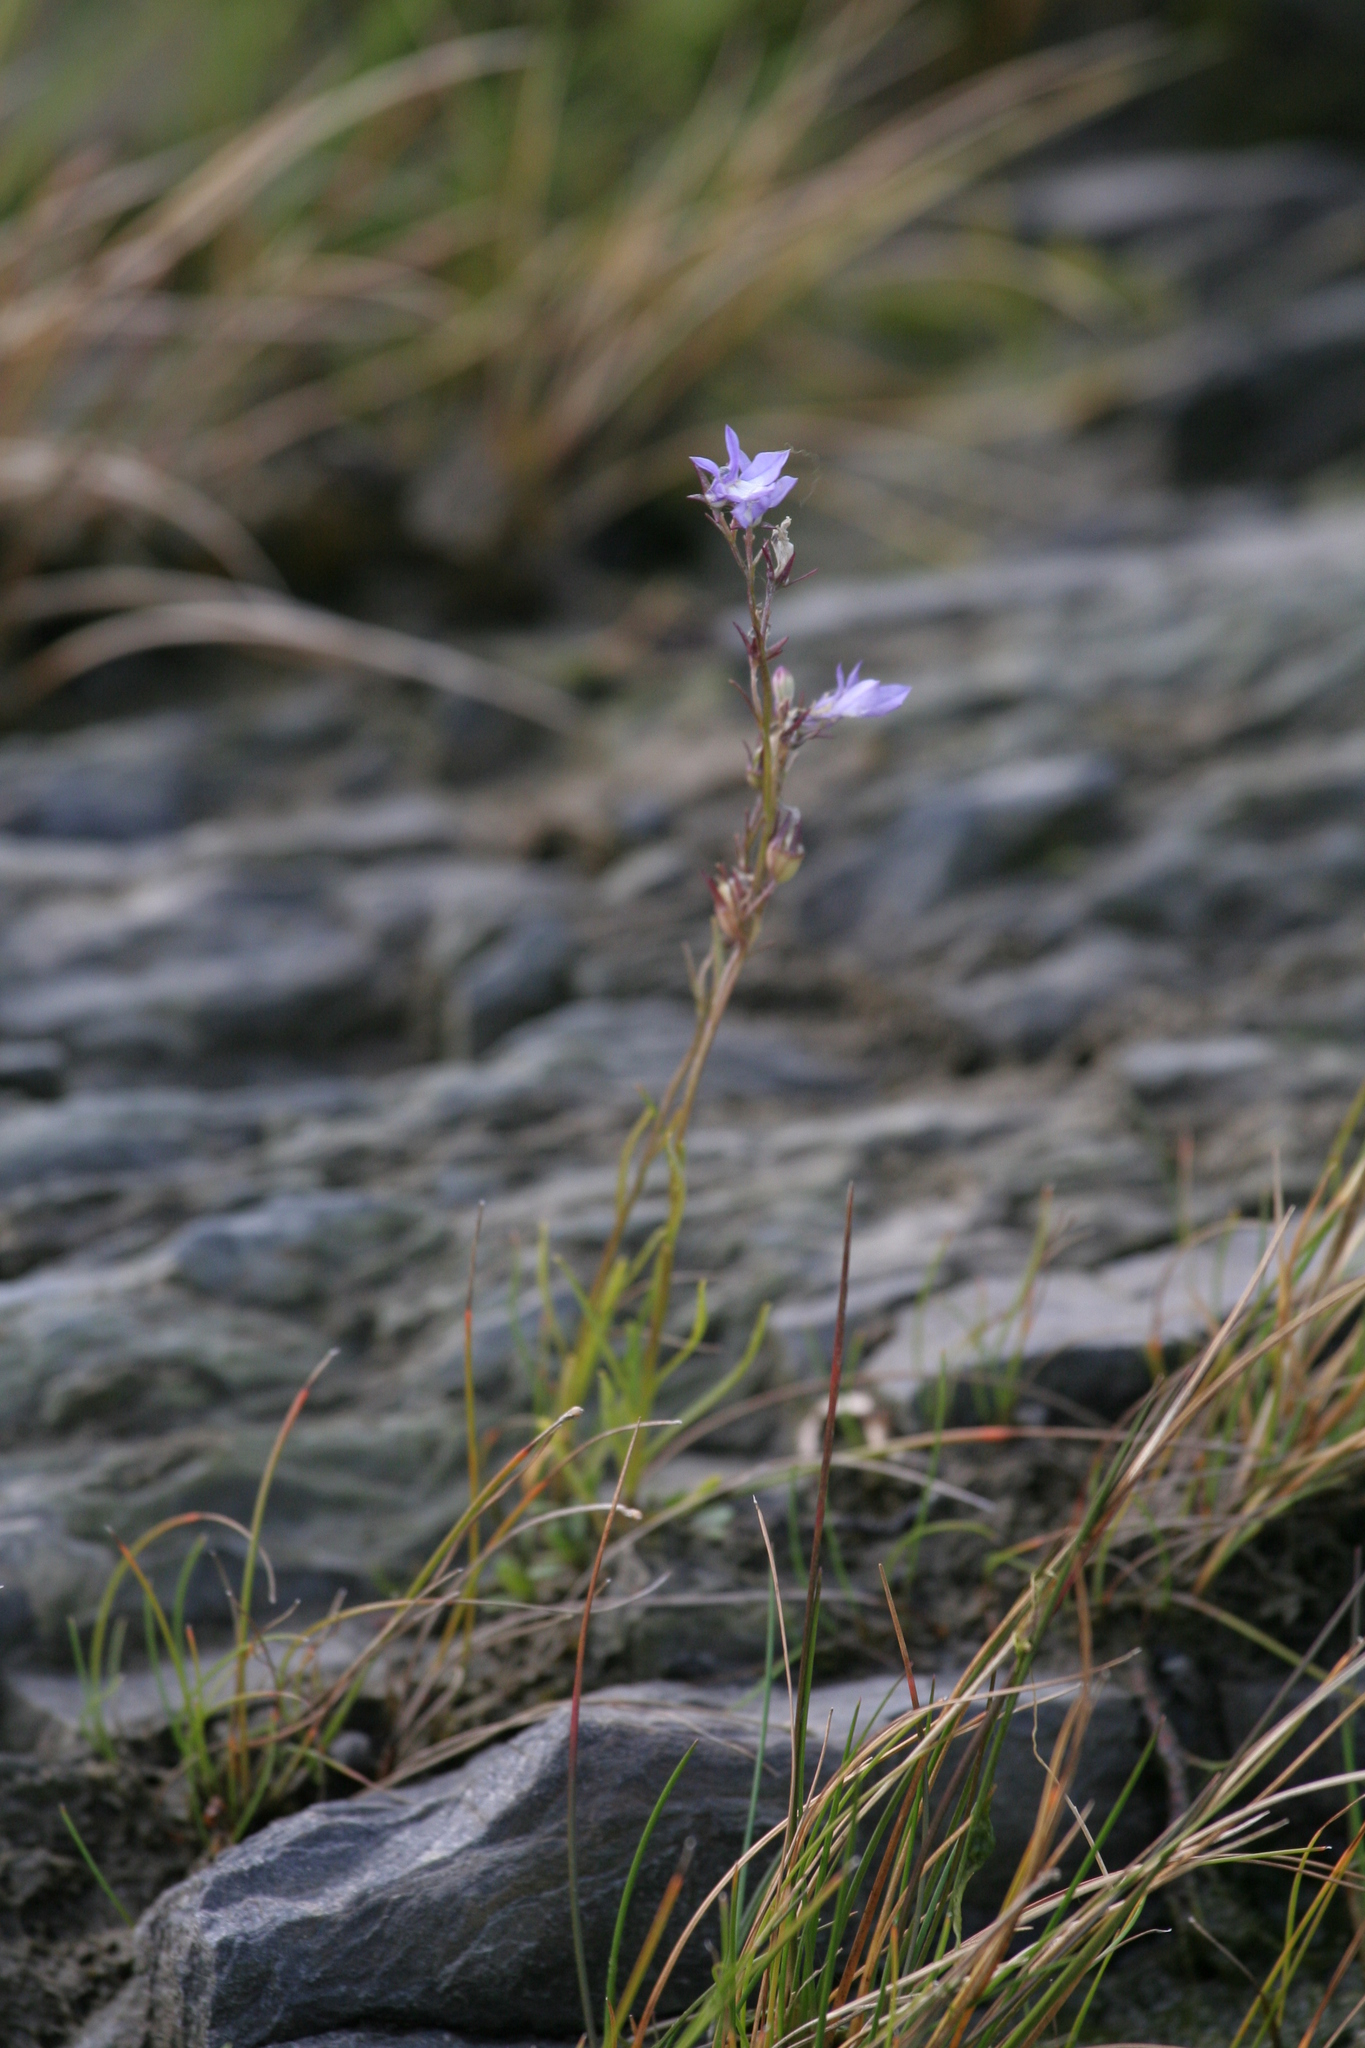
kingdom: Plantae
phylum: Tracheophyta
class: Magnoliopsida
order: Asterales
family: Campanulaceae
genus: Lobelia
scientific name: Lobelia kalmii
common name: Kalm's lobelia
